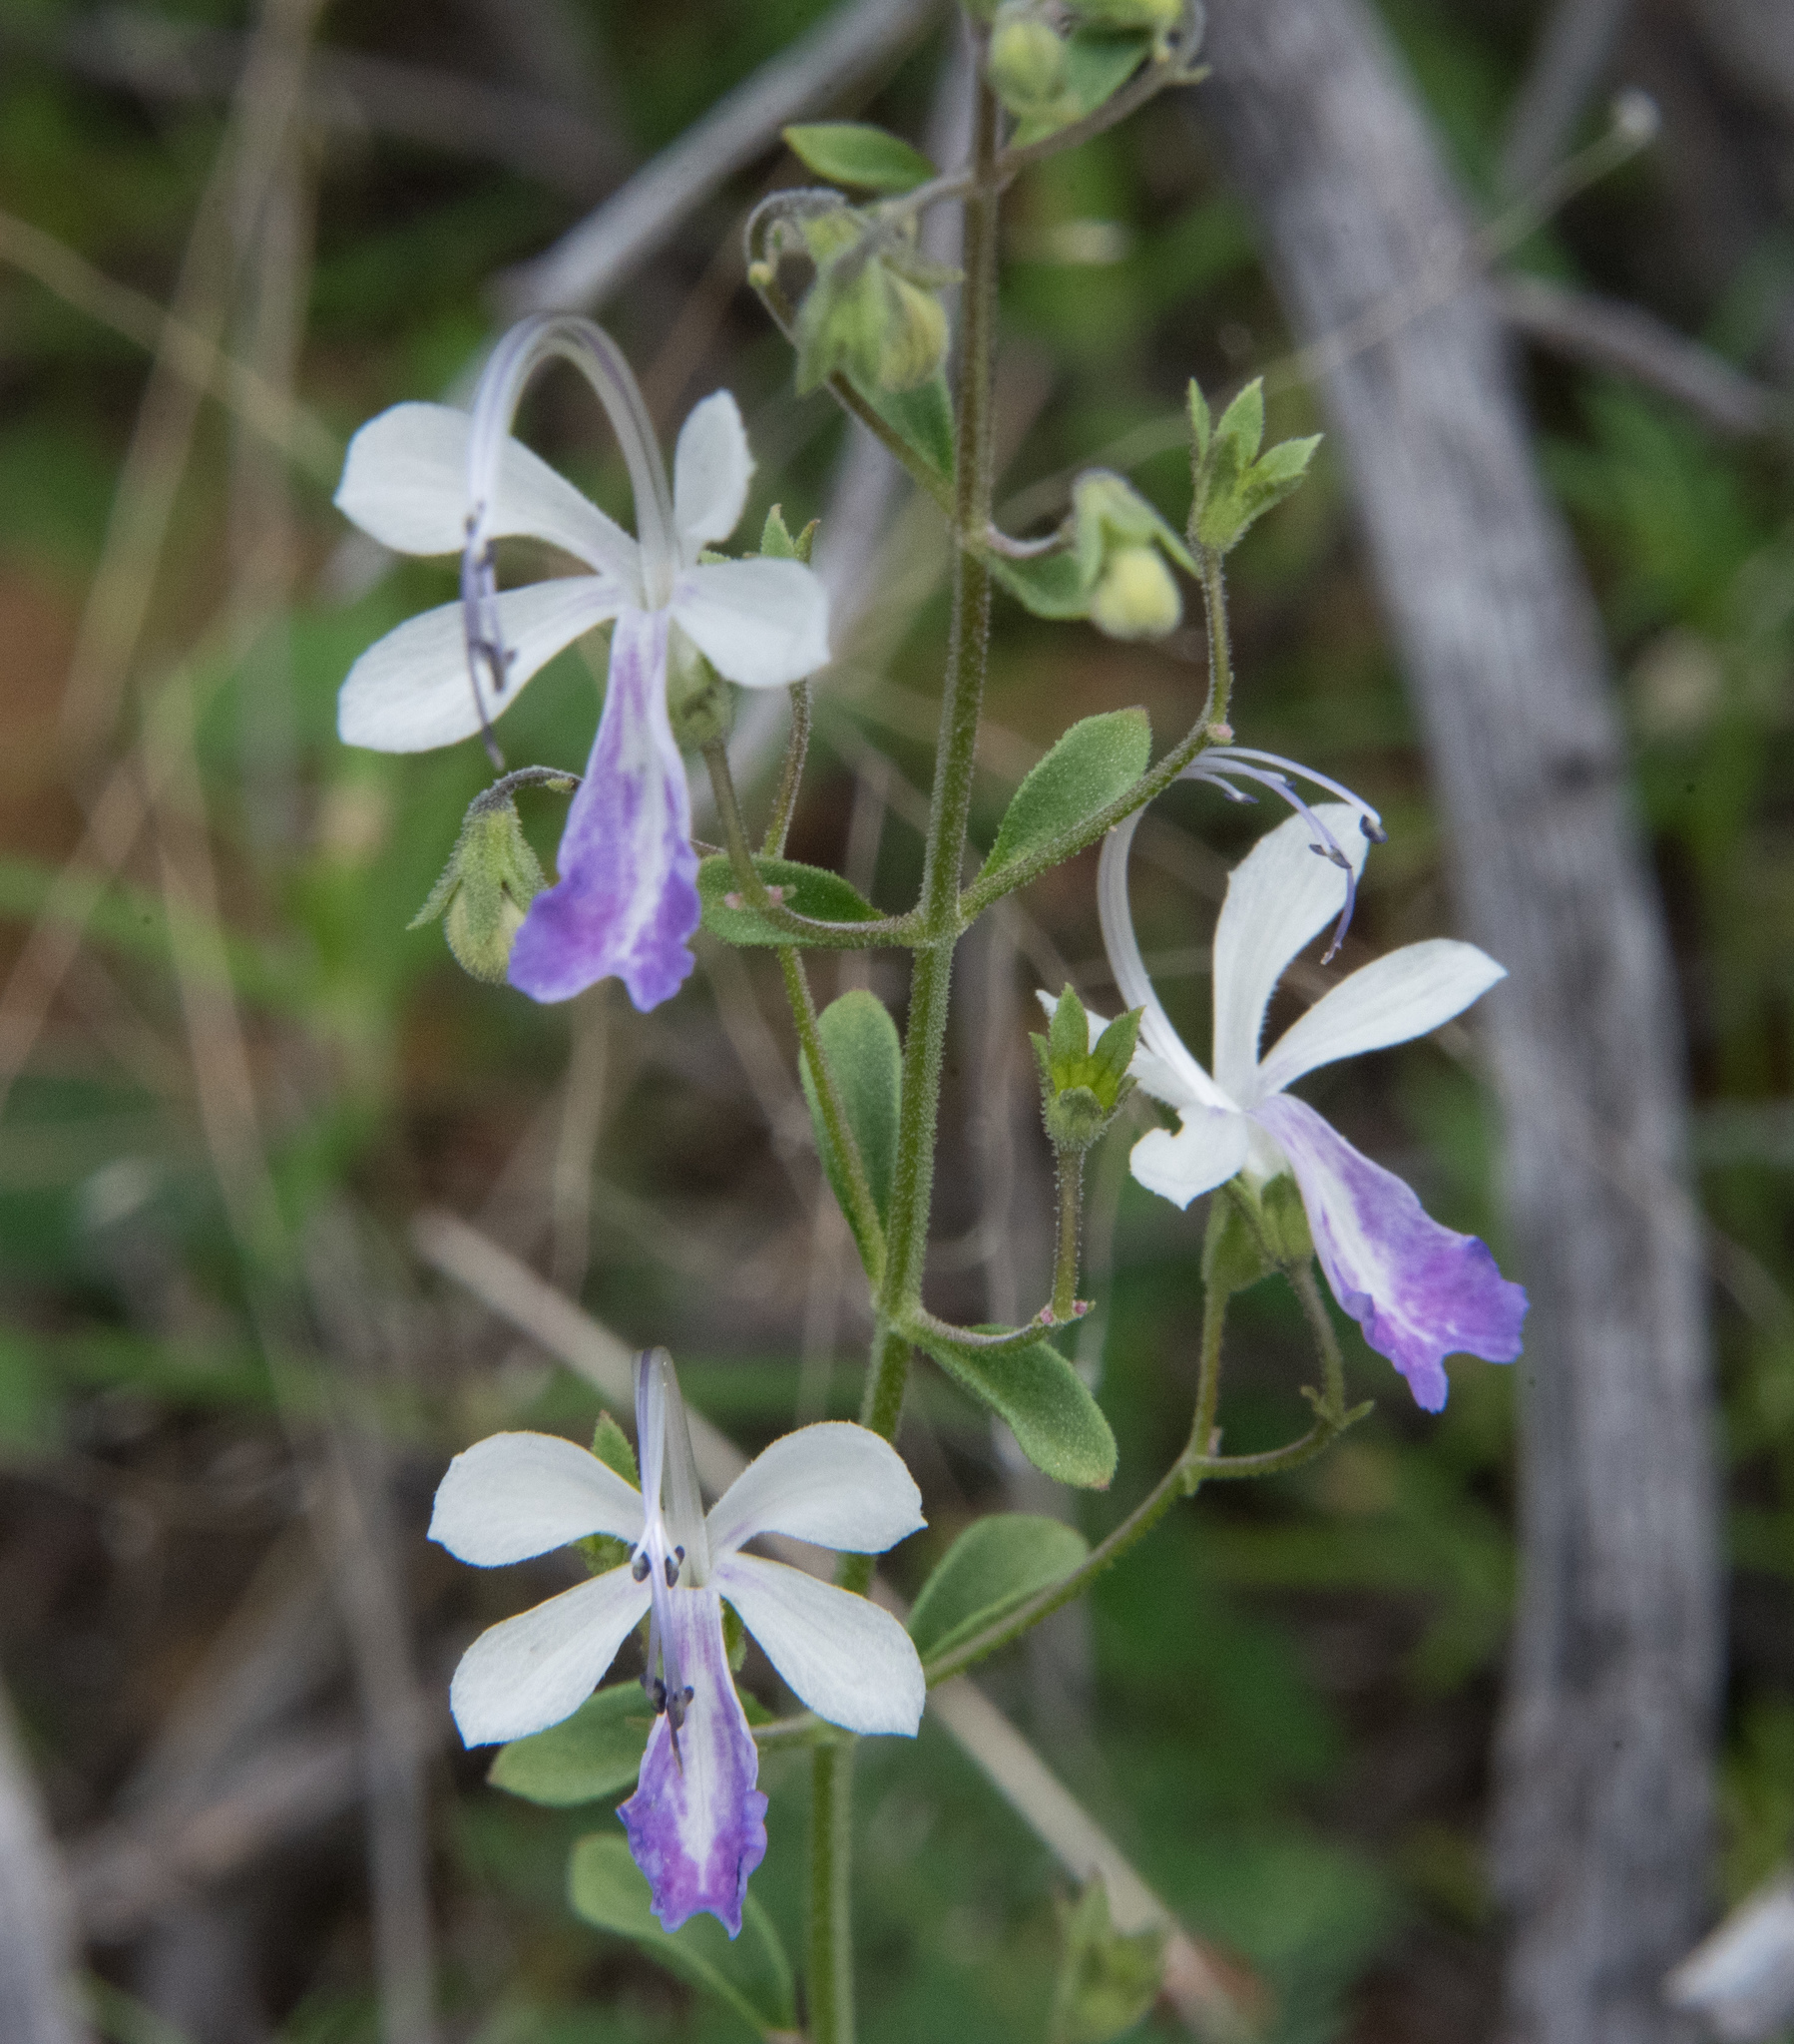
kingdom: Plantae
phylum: Tracheophyta
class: Magnoliopsida
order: Lamiales
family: Lamiaceae
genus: Trichostema
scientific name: Trichostema arizonicum
